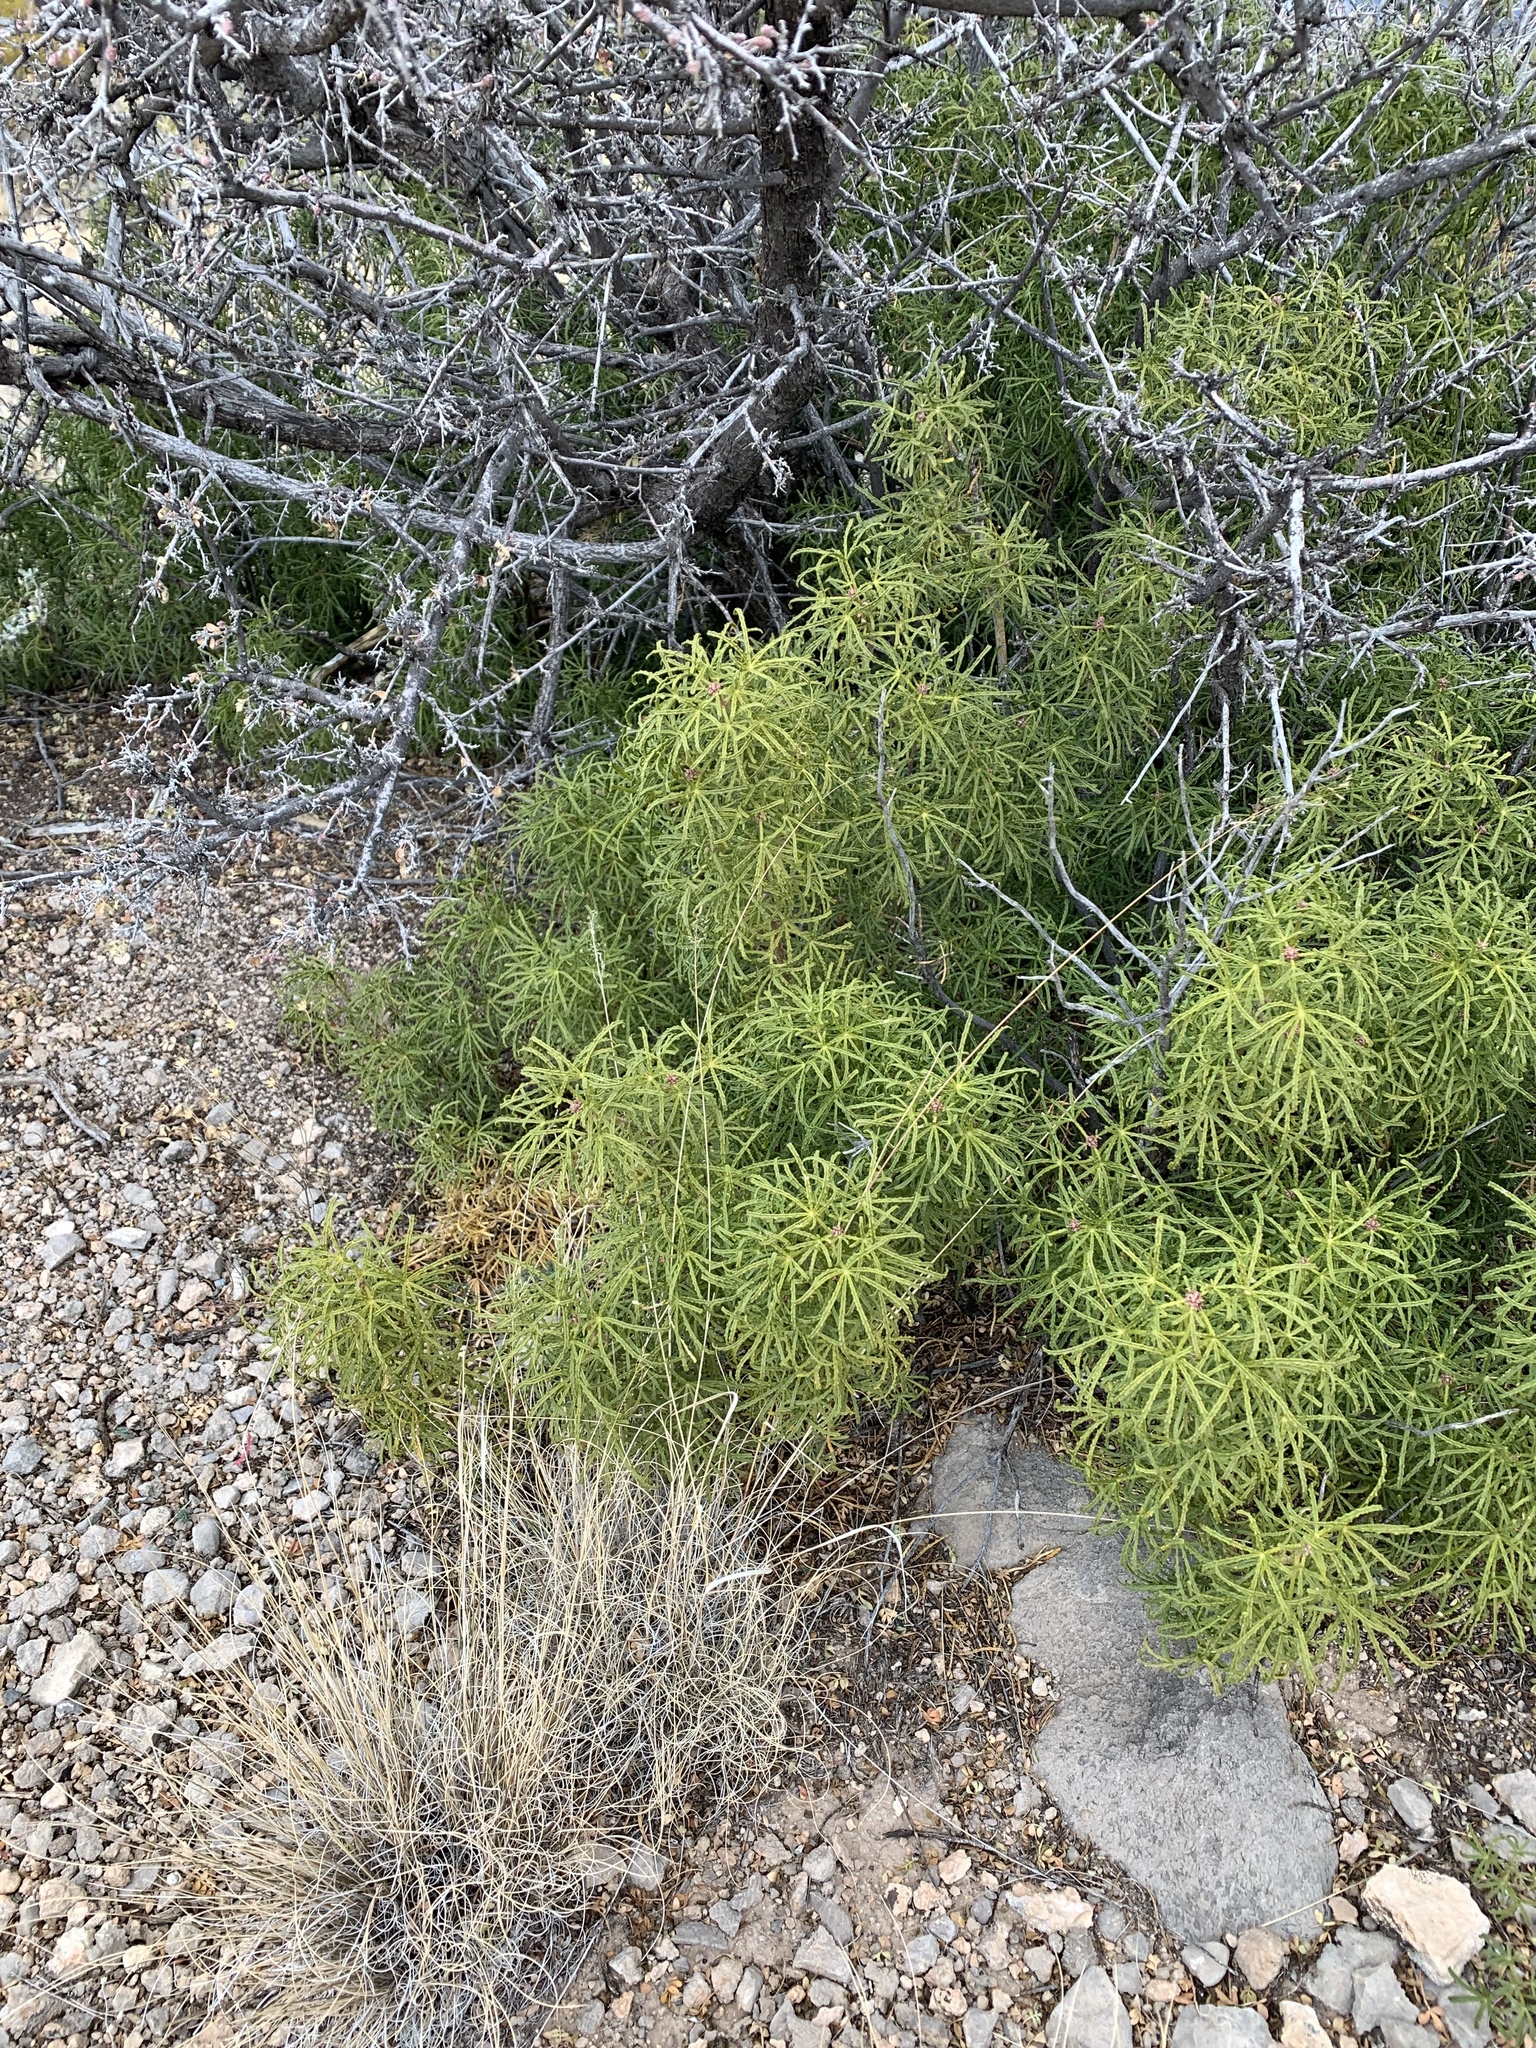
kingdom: Plantae
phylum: Tracheophyta
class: Magnoliopsida
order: Sapindales
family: Rutaceae
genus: Choisya
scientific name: Choisya dumosa
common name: Mexican-orange
